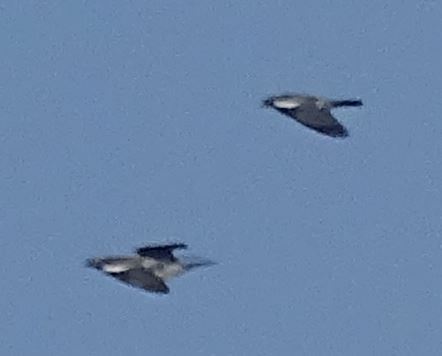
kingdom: Animalia
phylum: Chordata
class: Aves
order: Columbiformes
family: Columbidae
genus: Columba
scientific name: Columba palumbus
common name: Common wood pigeon
